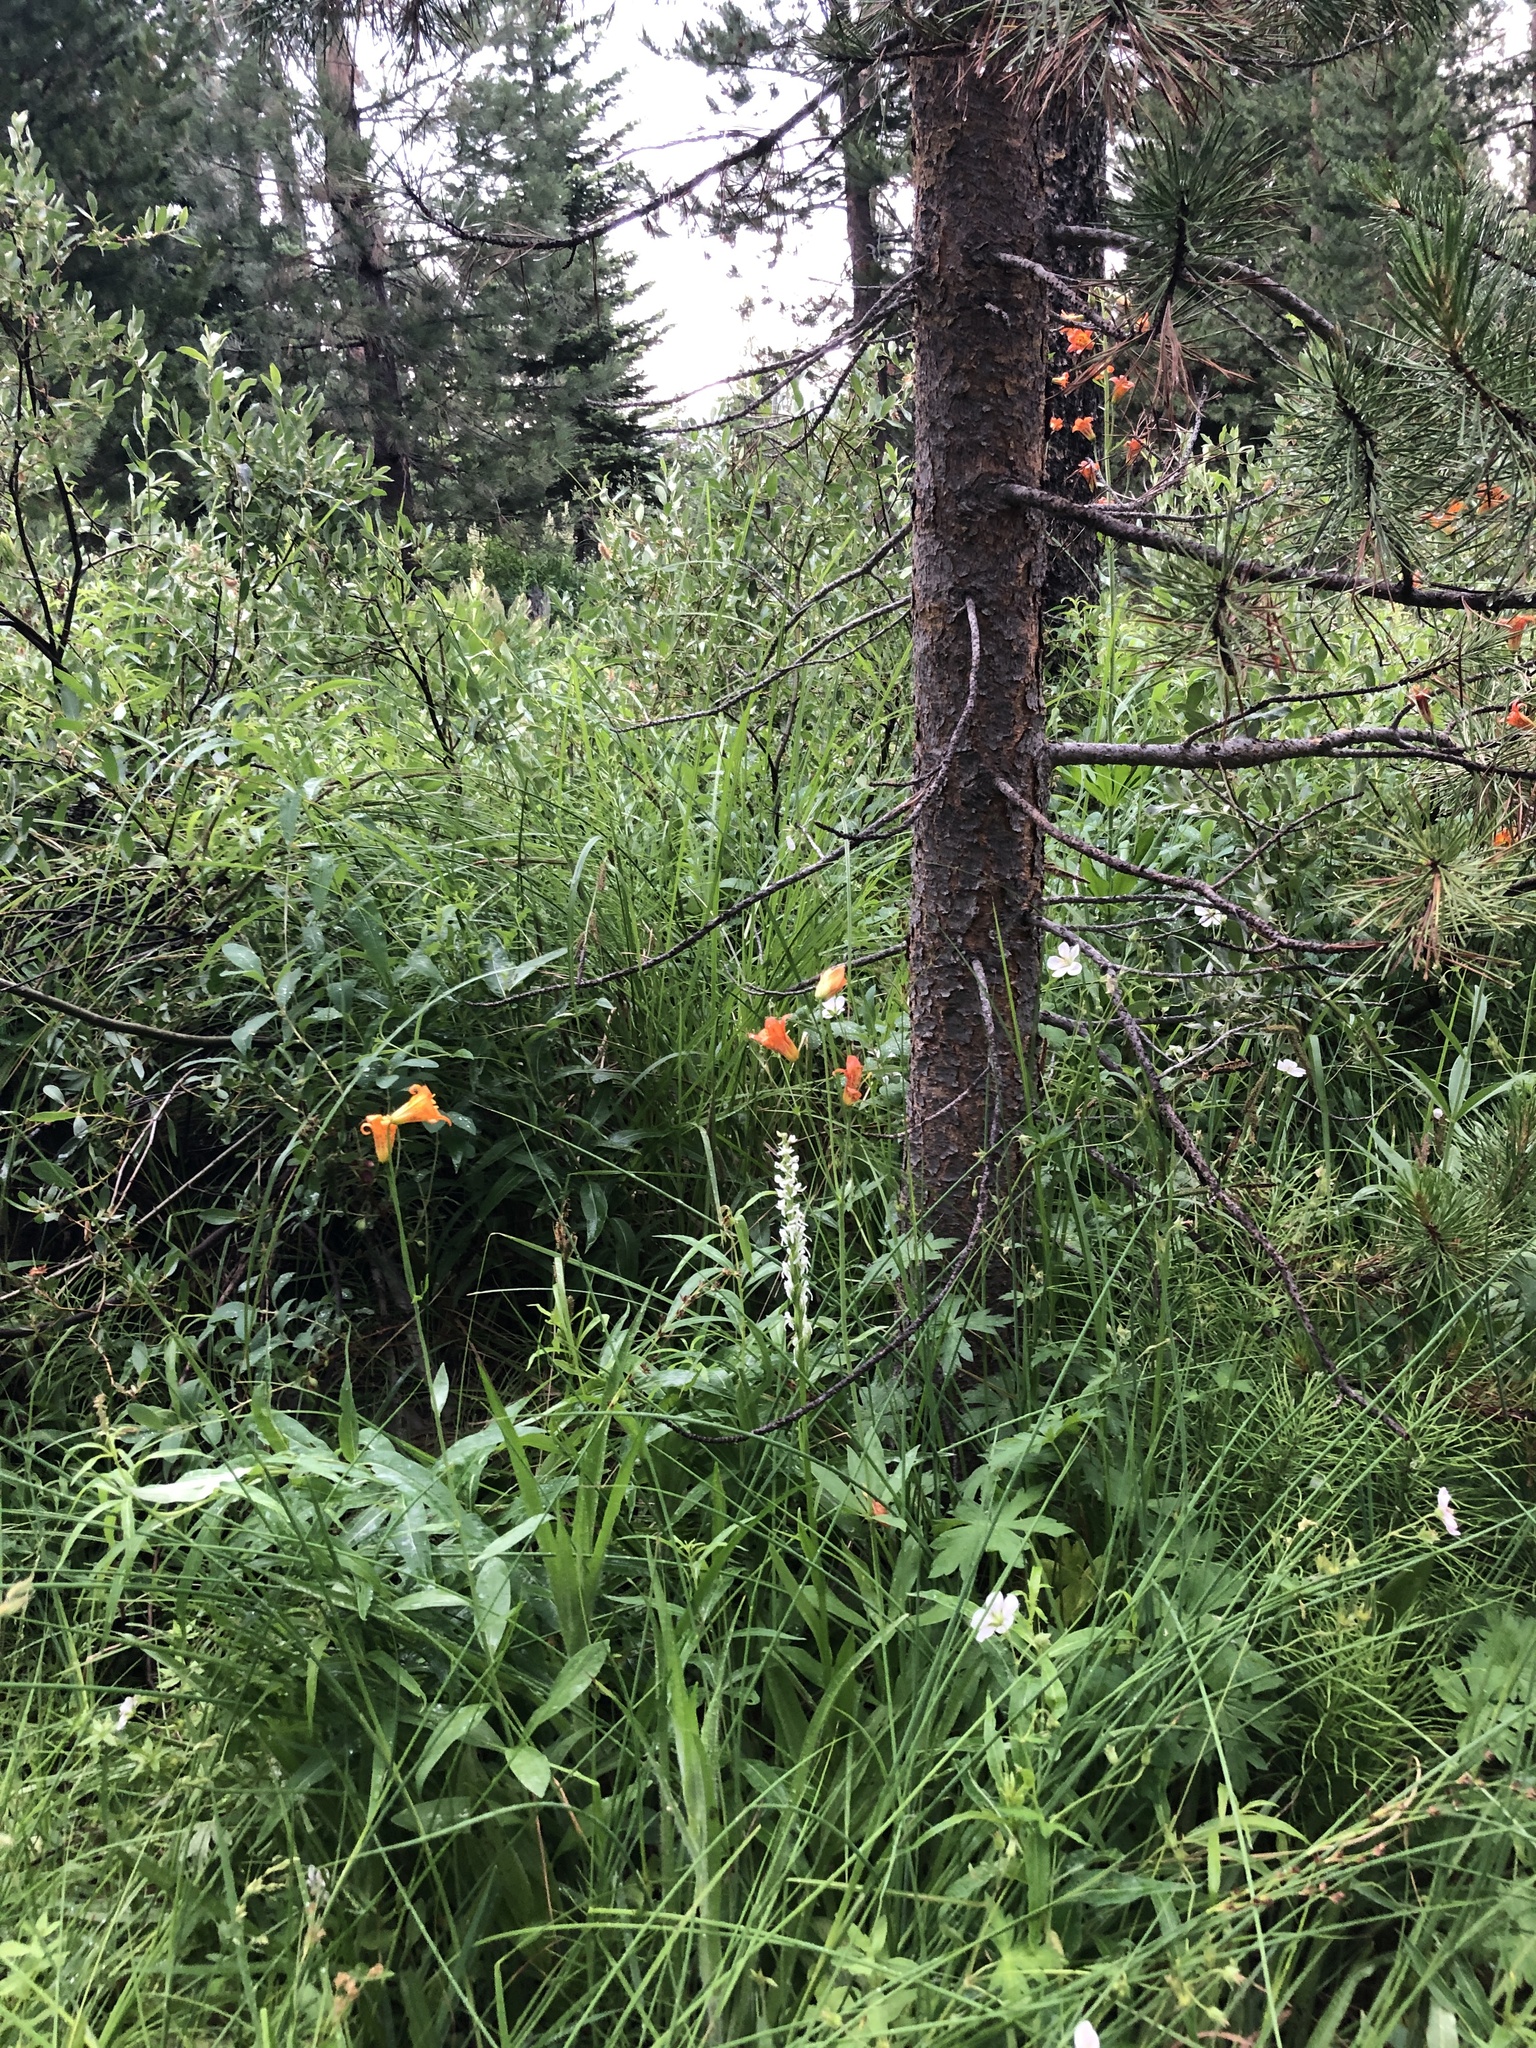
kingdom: Plantae
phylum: Tracheophyta
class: Liliopsida
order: Asparagales
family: Orchidaceae
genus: Platanthera
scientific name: Platanthera dilatata
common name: Bog candles
